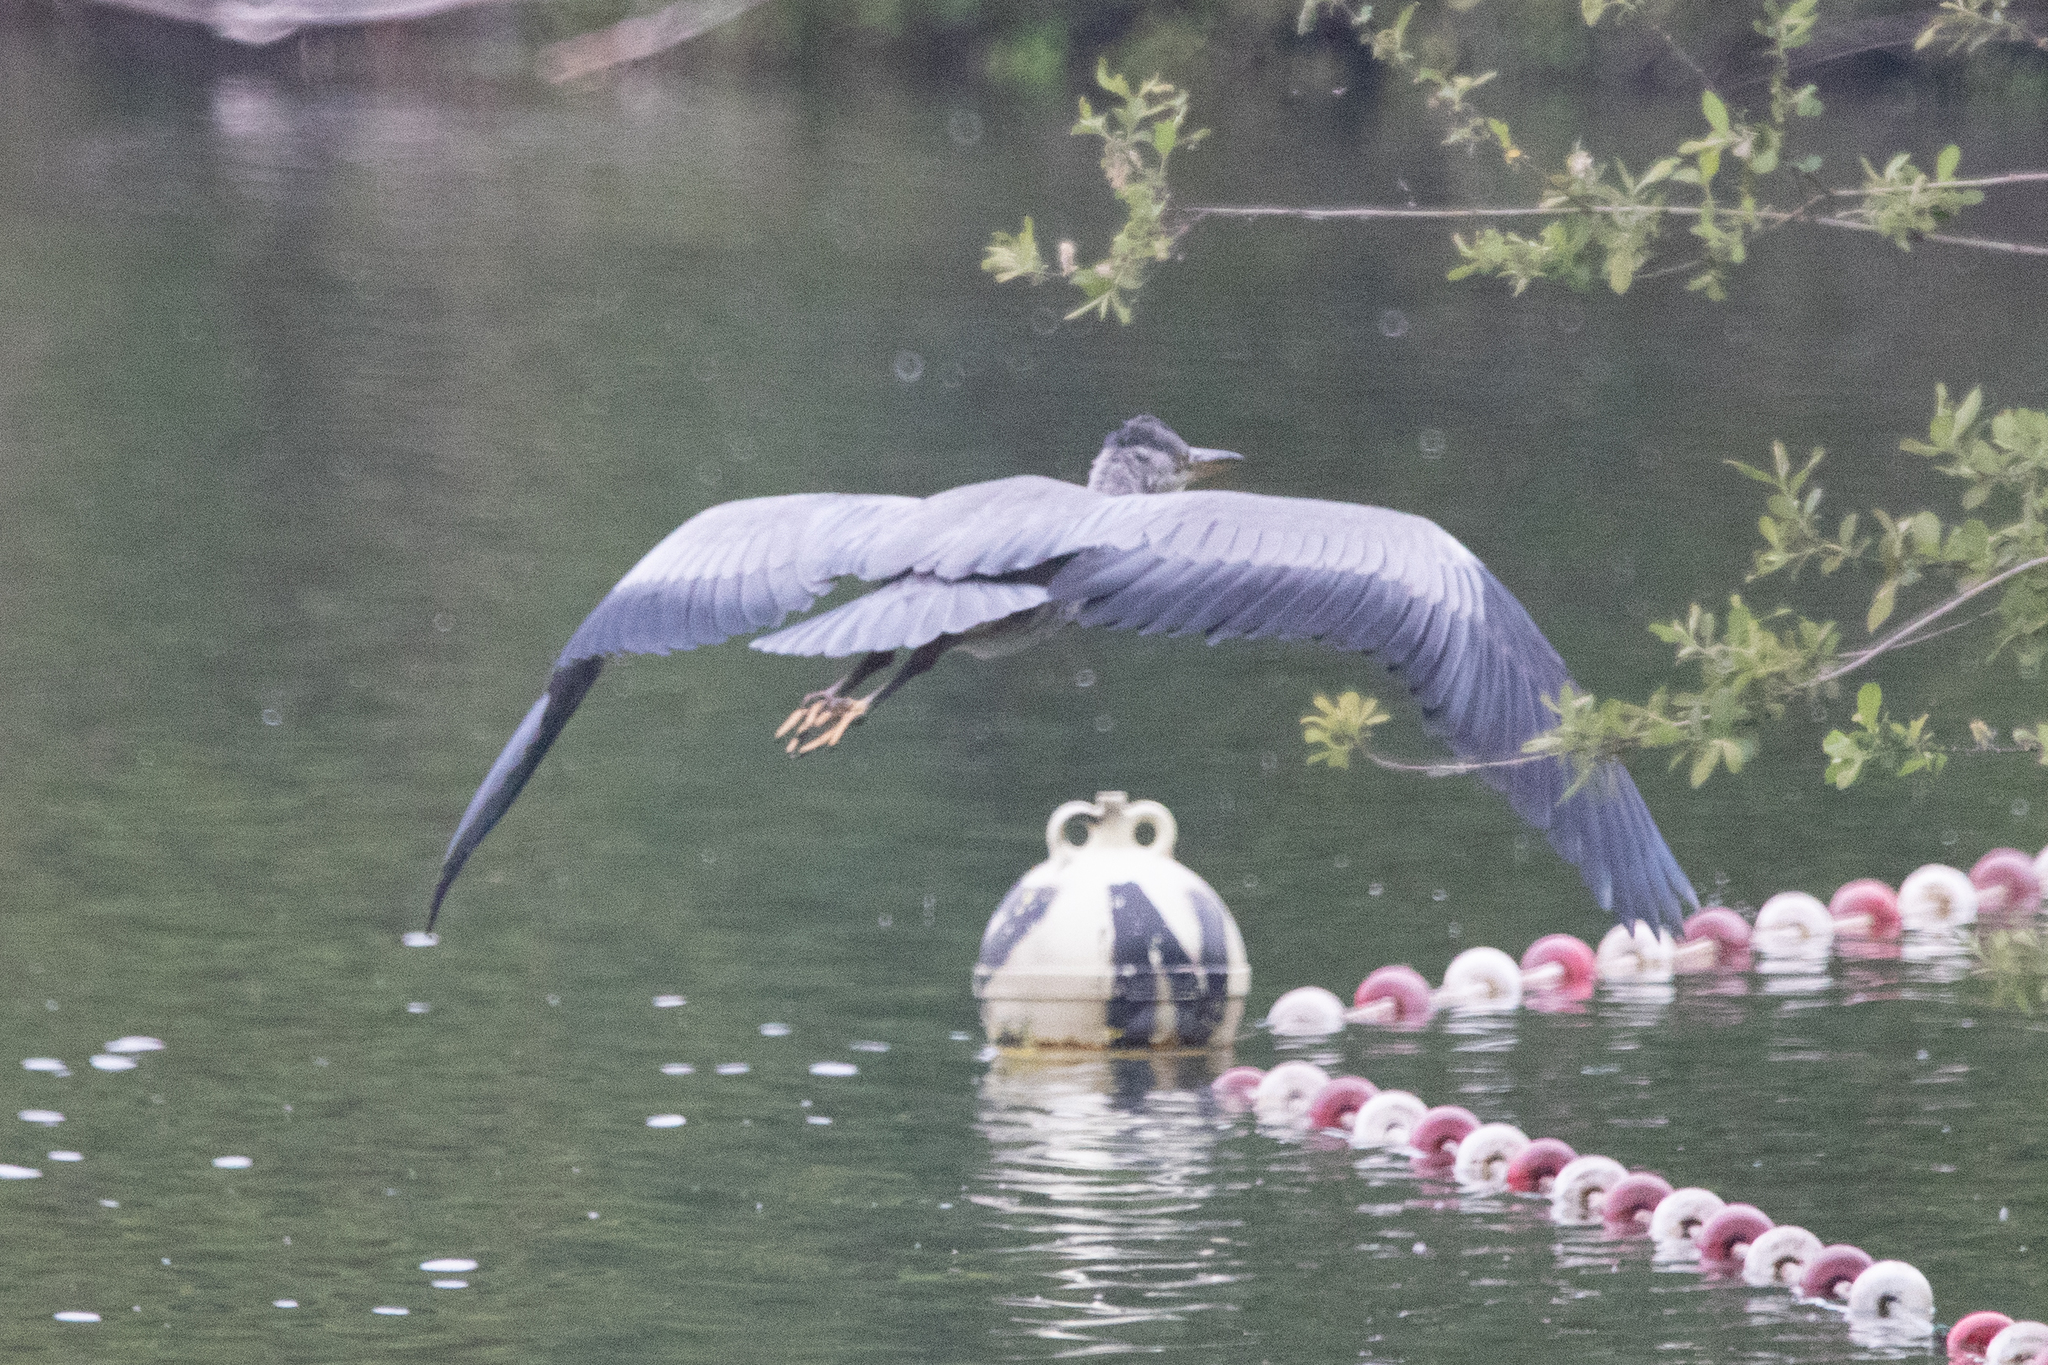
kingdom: Animalia
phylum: Chordata
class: Aves
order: Pelecaniformes
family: Ardeidae
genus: Ardea
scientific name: Ardea cinerea
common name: Grey heron
